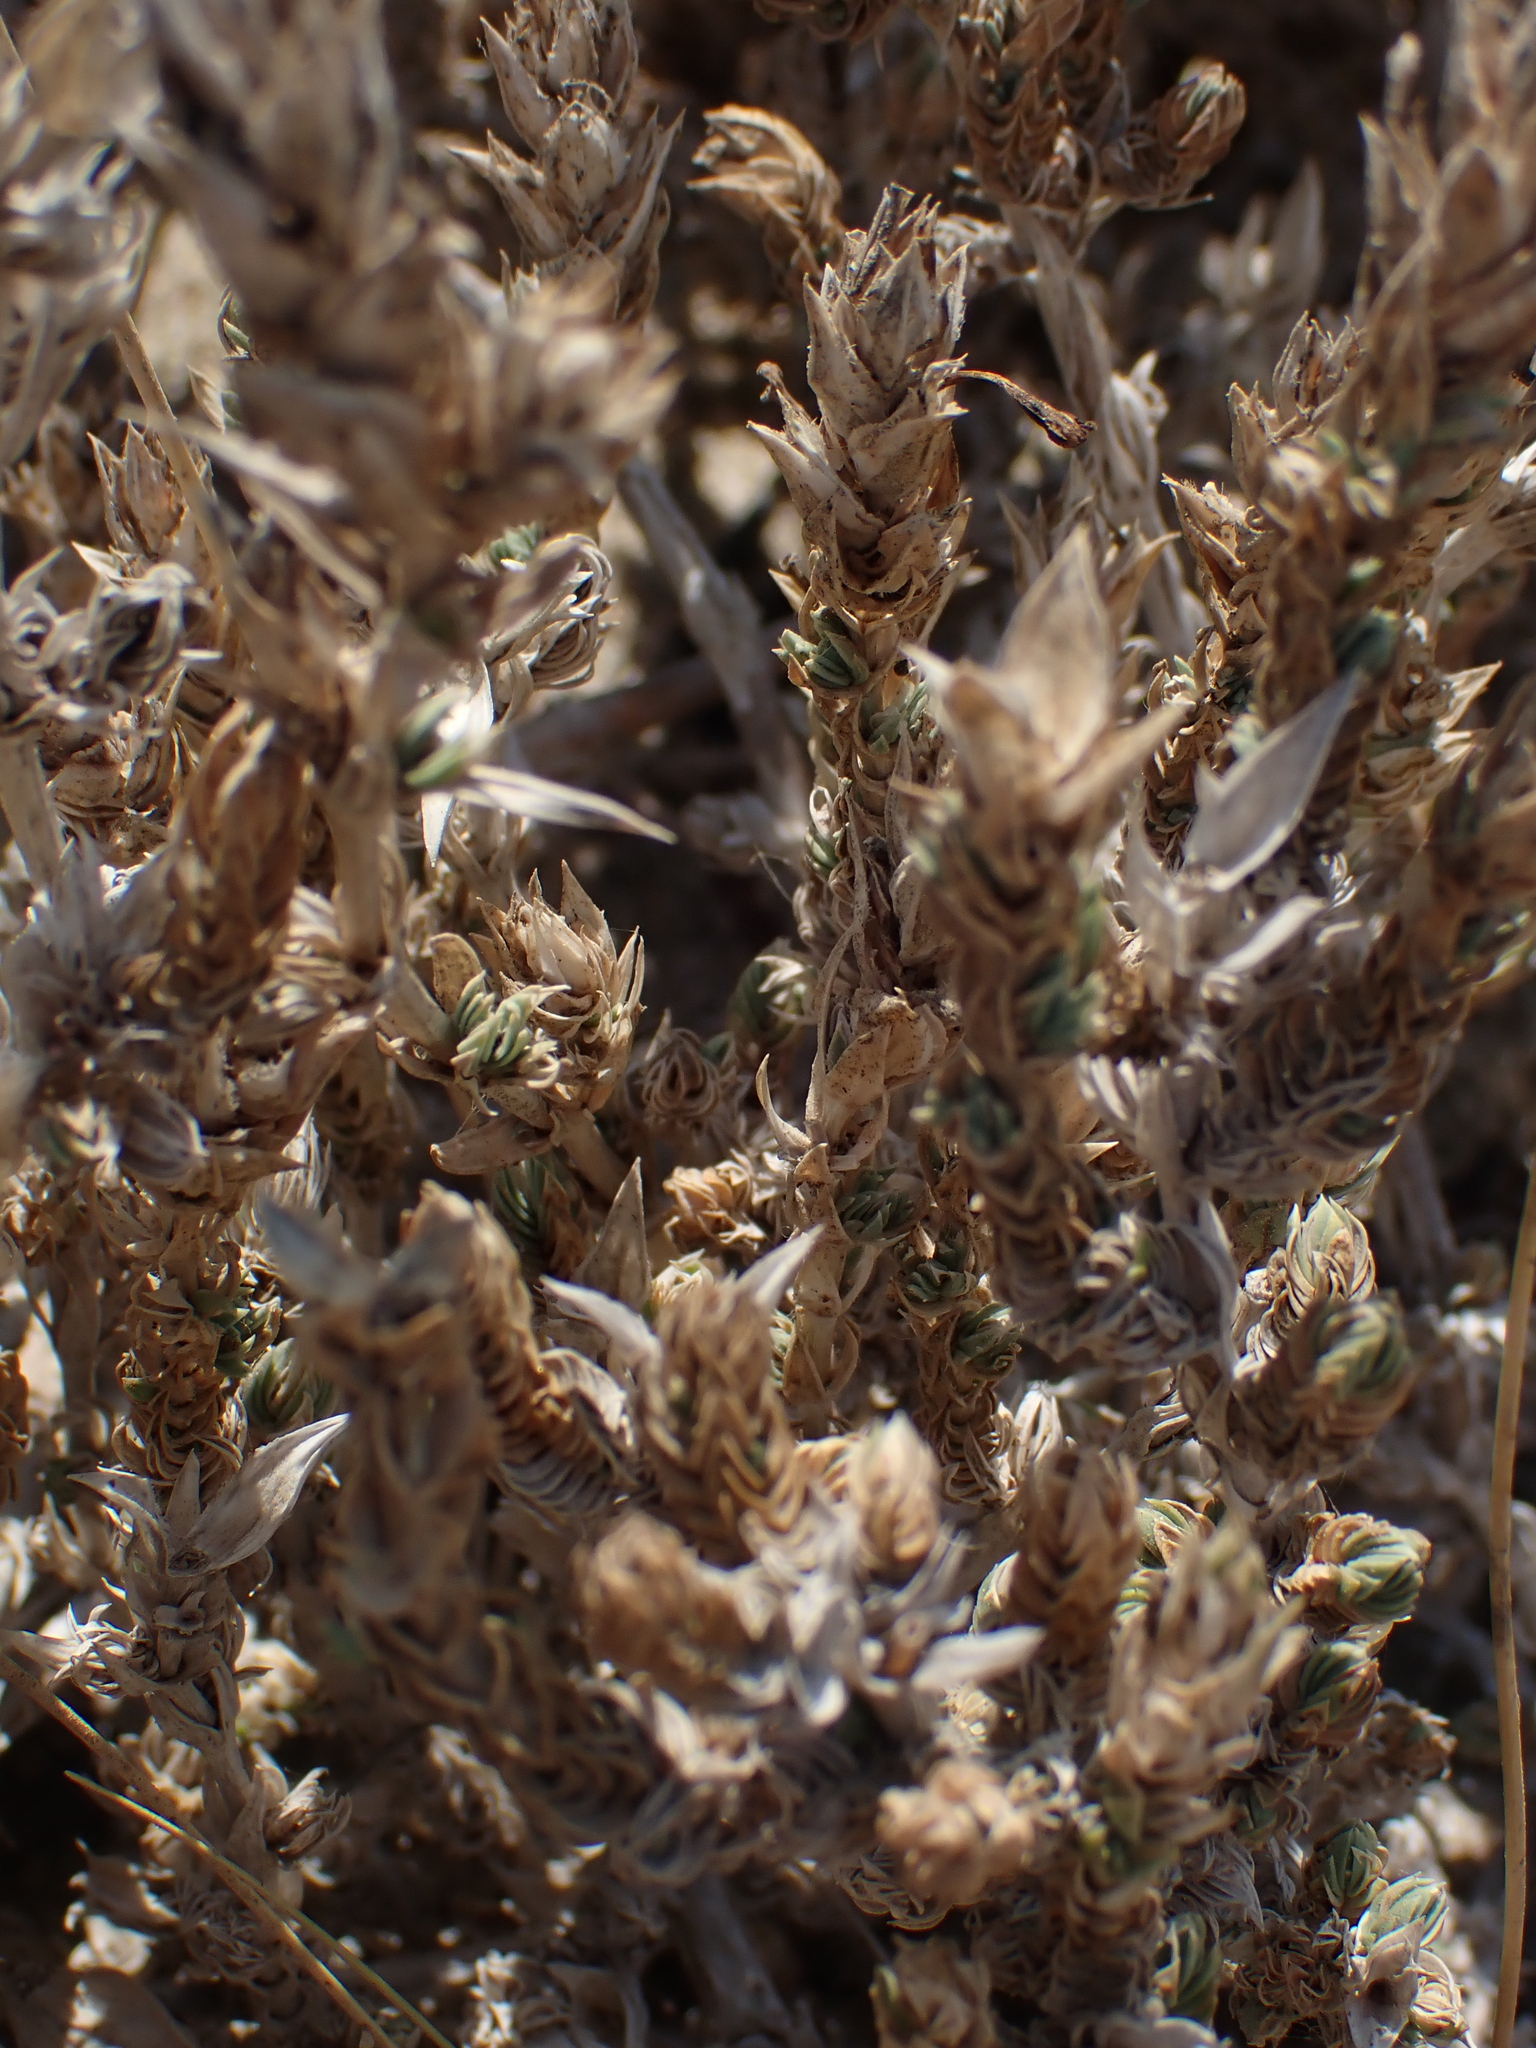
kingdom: Plantae
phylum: Tracheophyta
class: Magnoliopsida
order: Gentianales
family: Rubiaceae
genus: Crucianella
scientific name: Crucianella maritima
